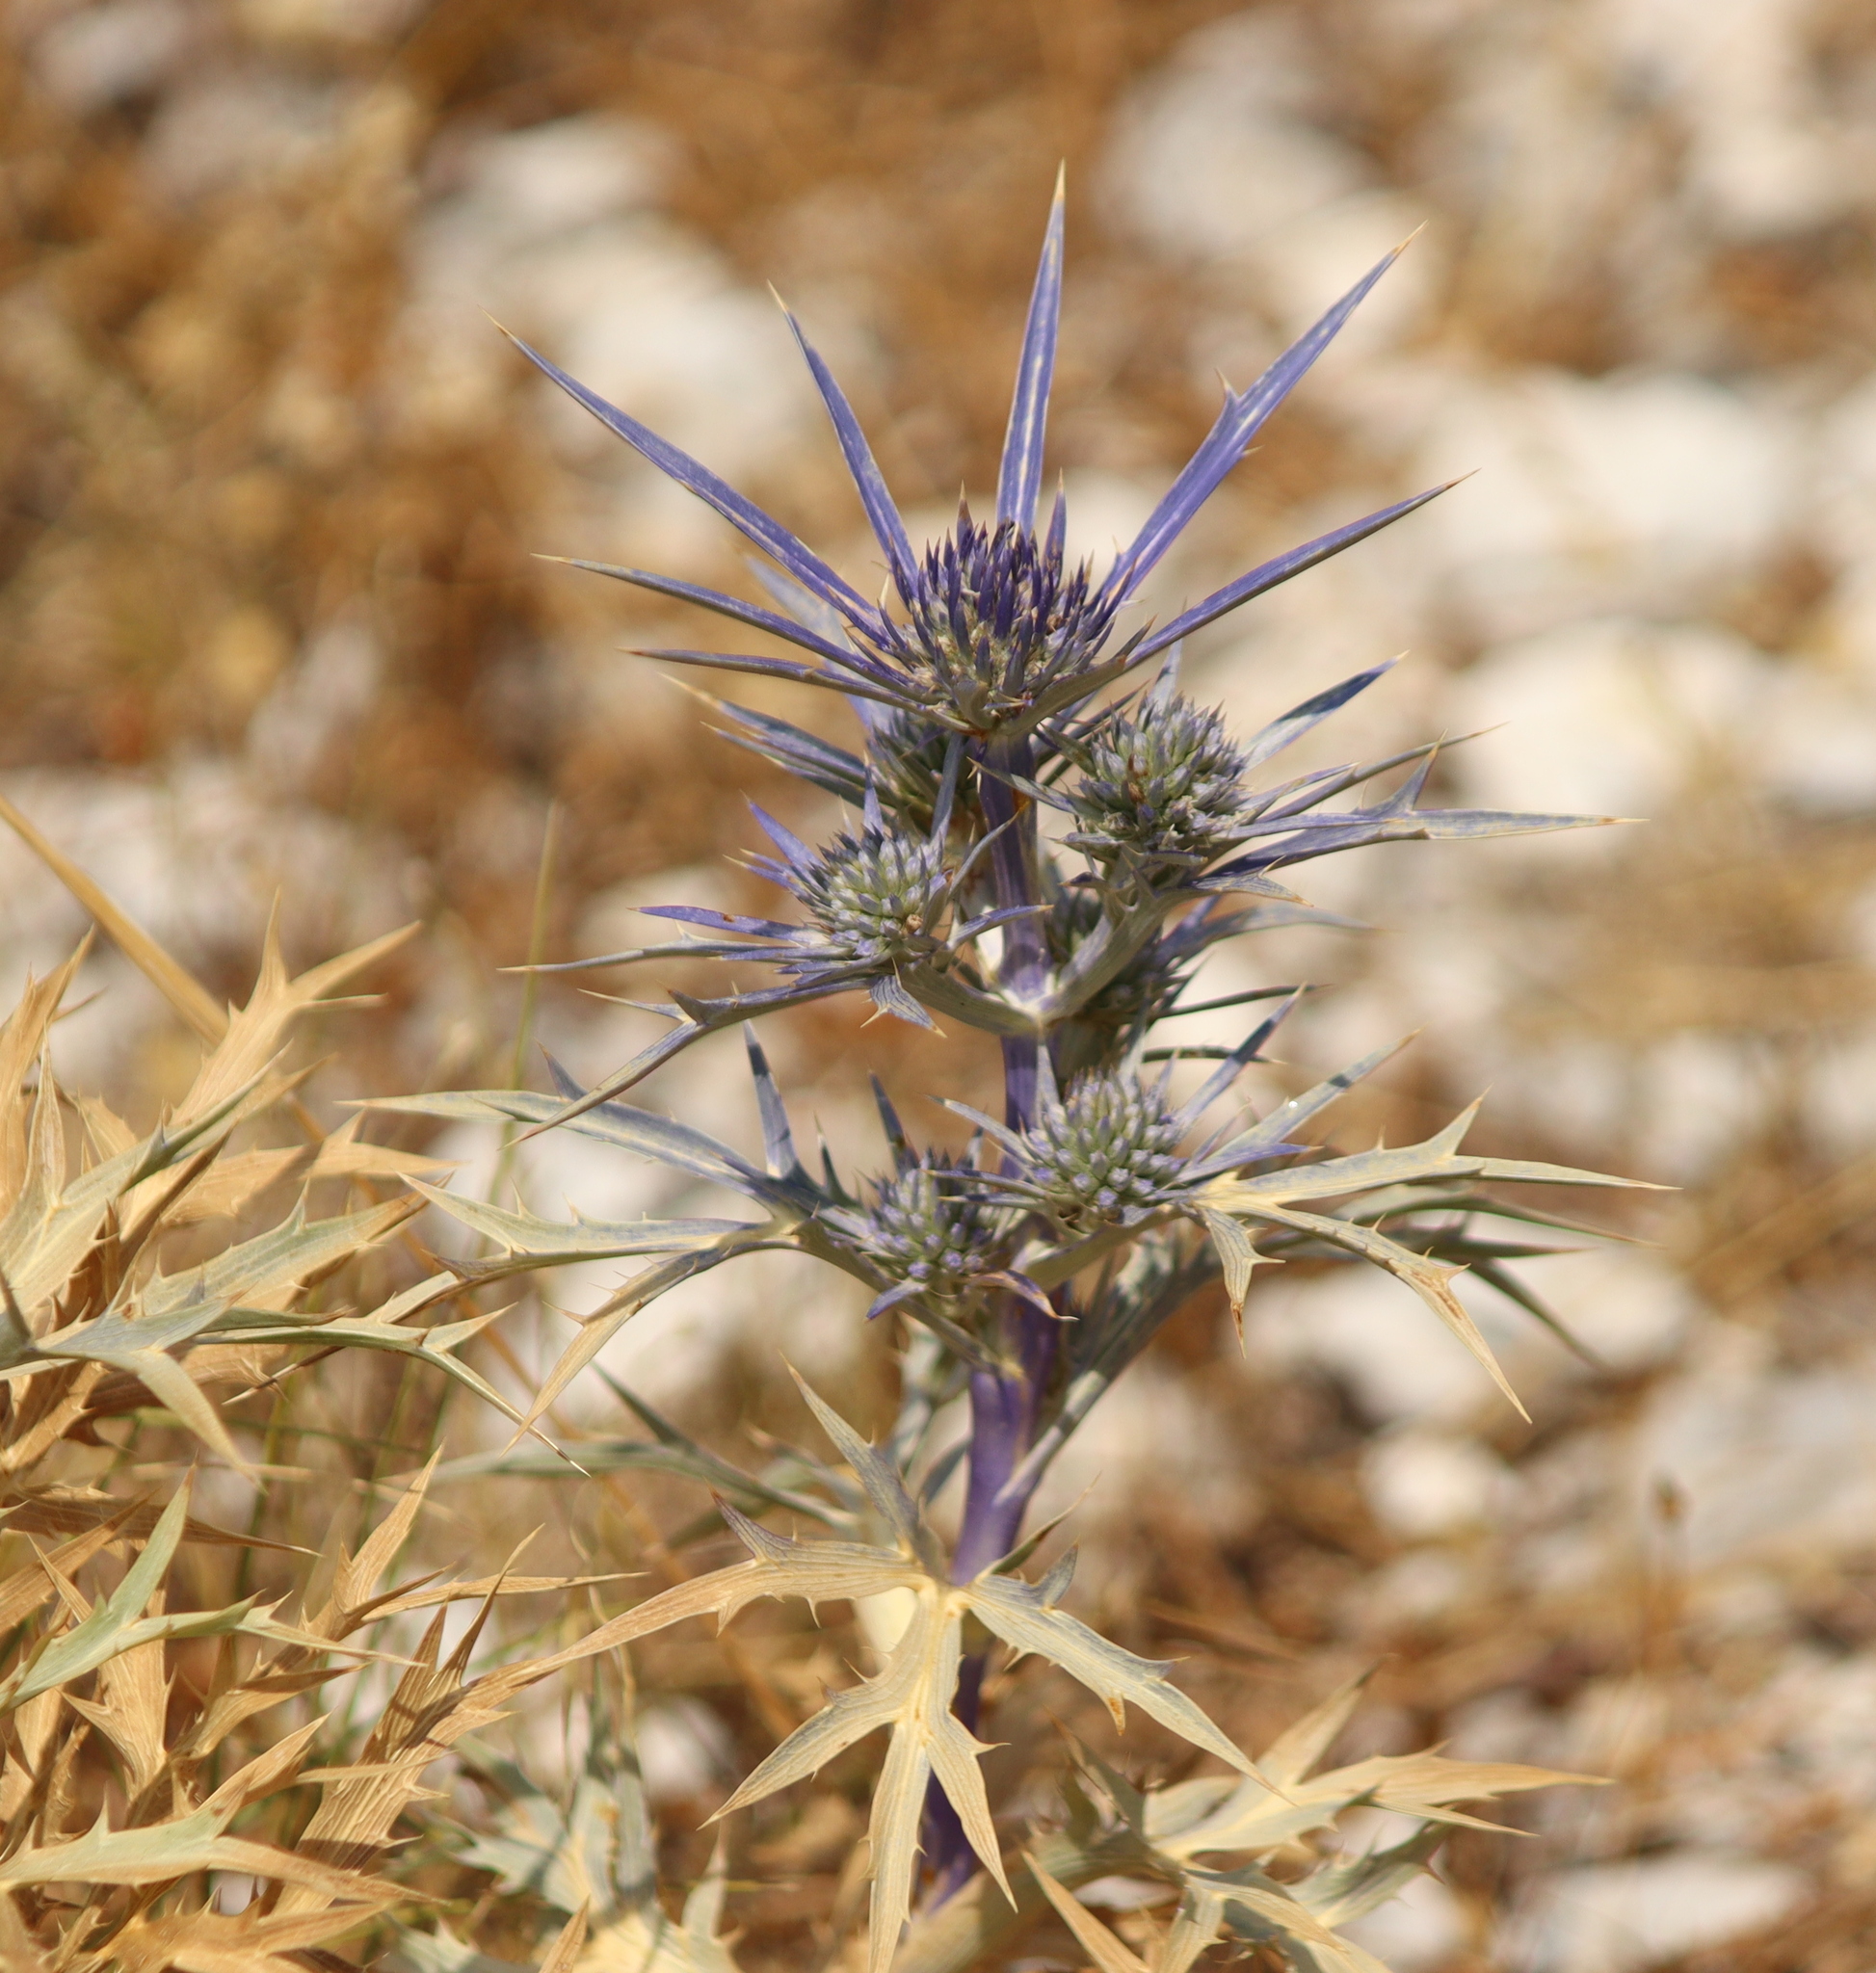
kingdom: Plantae
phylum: Tracheophyta
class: Magnoliopsida
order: Apiales
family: Apiaceae
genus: Eryngium
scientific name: Eryngium amethystinum
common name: Amethyst eryngo
